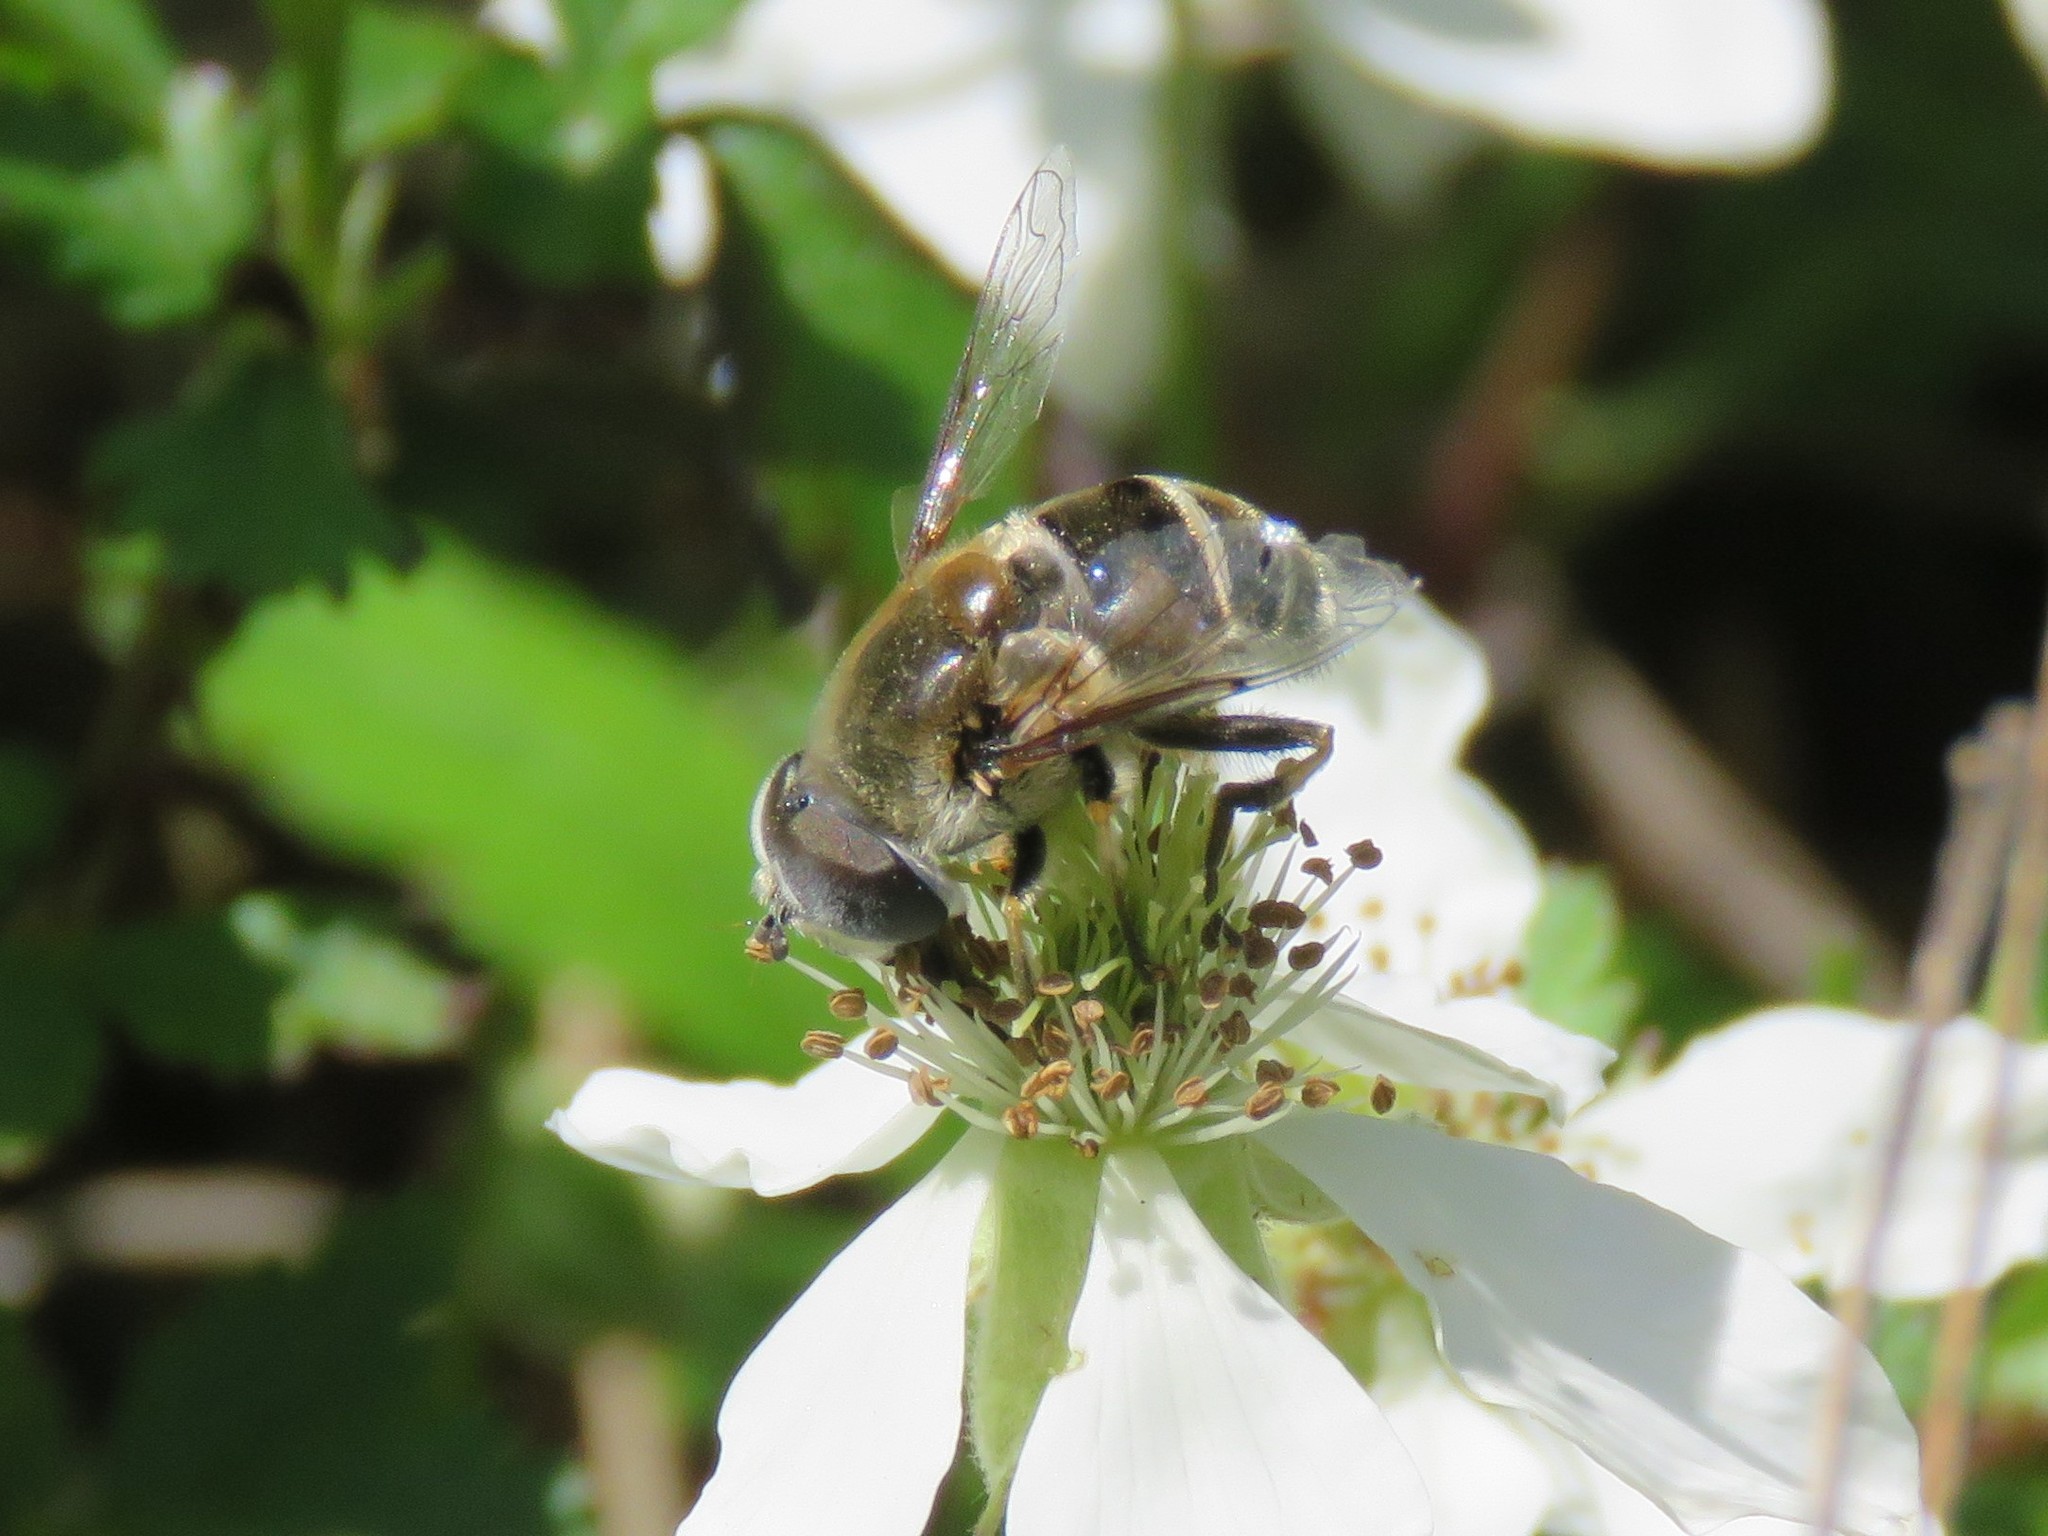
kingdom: Animalia
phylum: Arthropoda
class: Insecta
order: Diptera
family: Syrphidae
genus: Eristalis
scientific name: Eristalis stipator
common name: Yellow-shouldered drone fly
